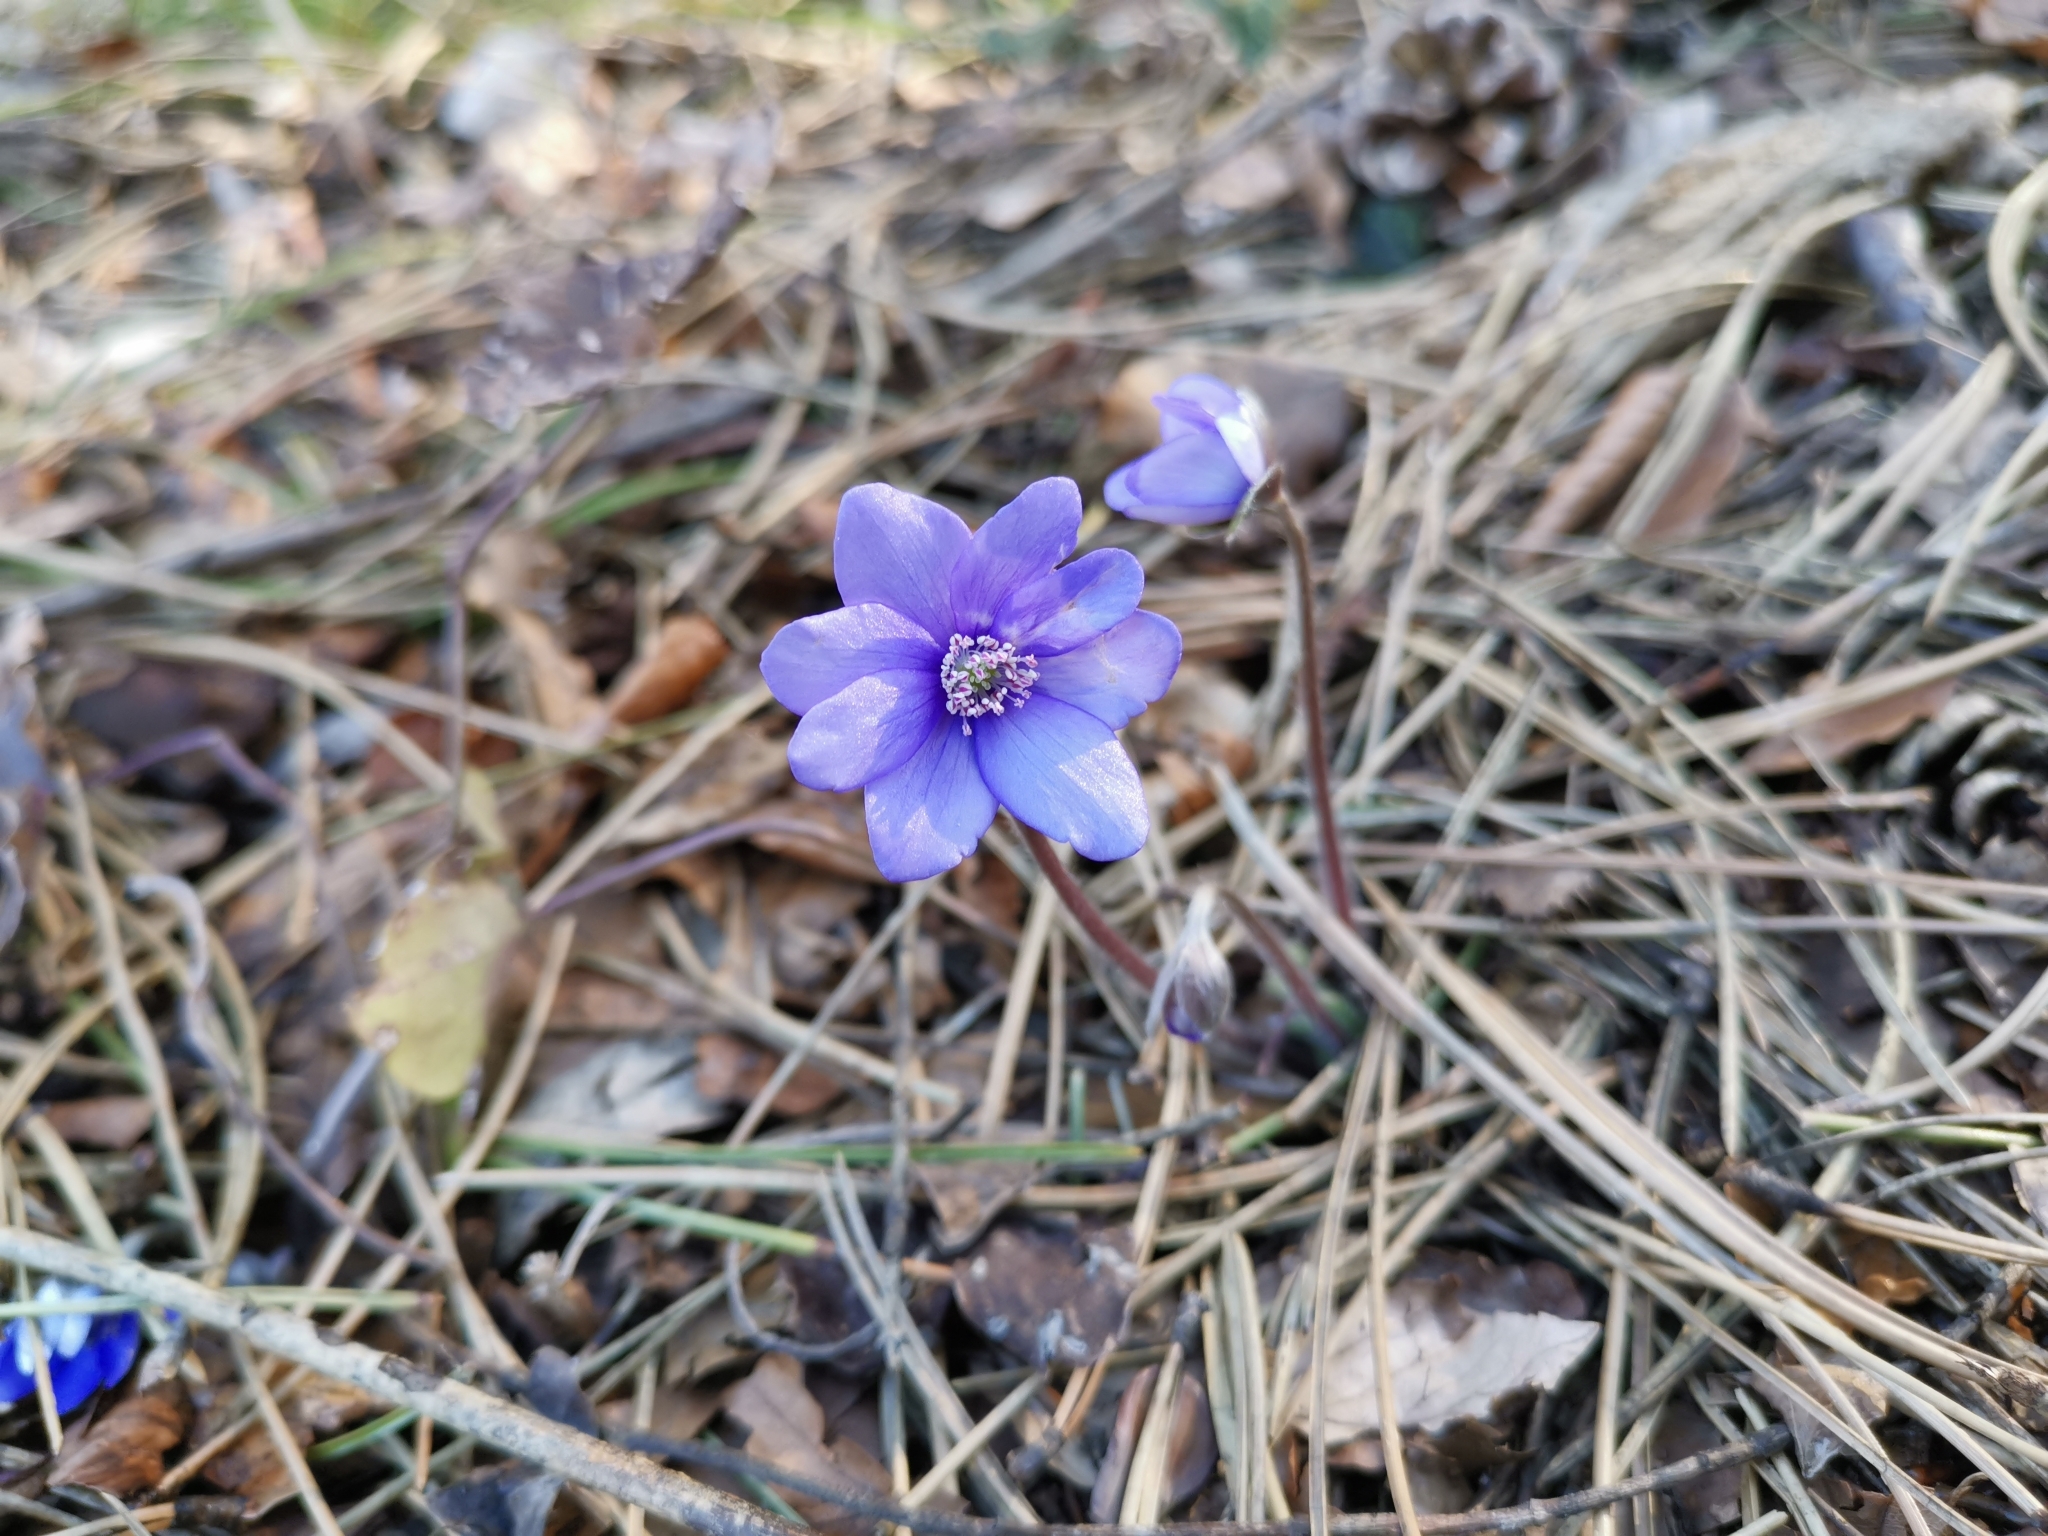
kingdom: Plantae
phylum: Tracheophyta
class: Magnoliopsida
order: Ranunculales
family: Ranunculaceae
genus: Hepatica
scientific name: Hepatica nobilis
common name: Liverleaf
